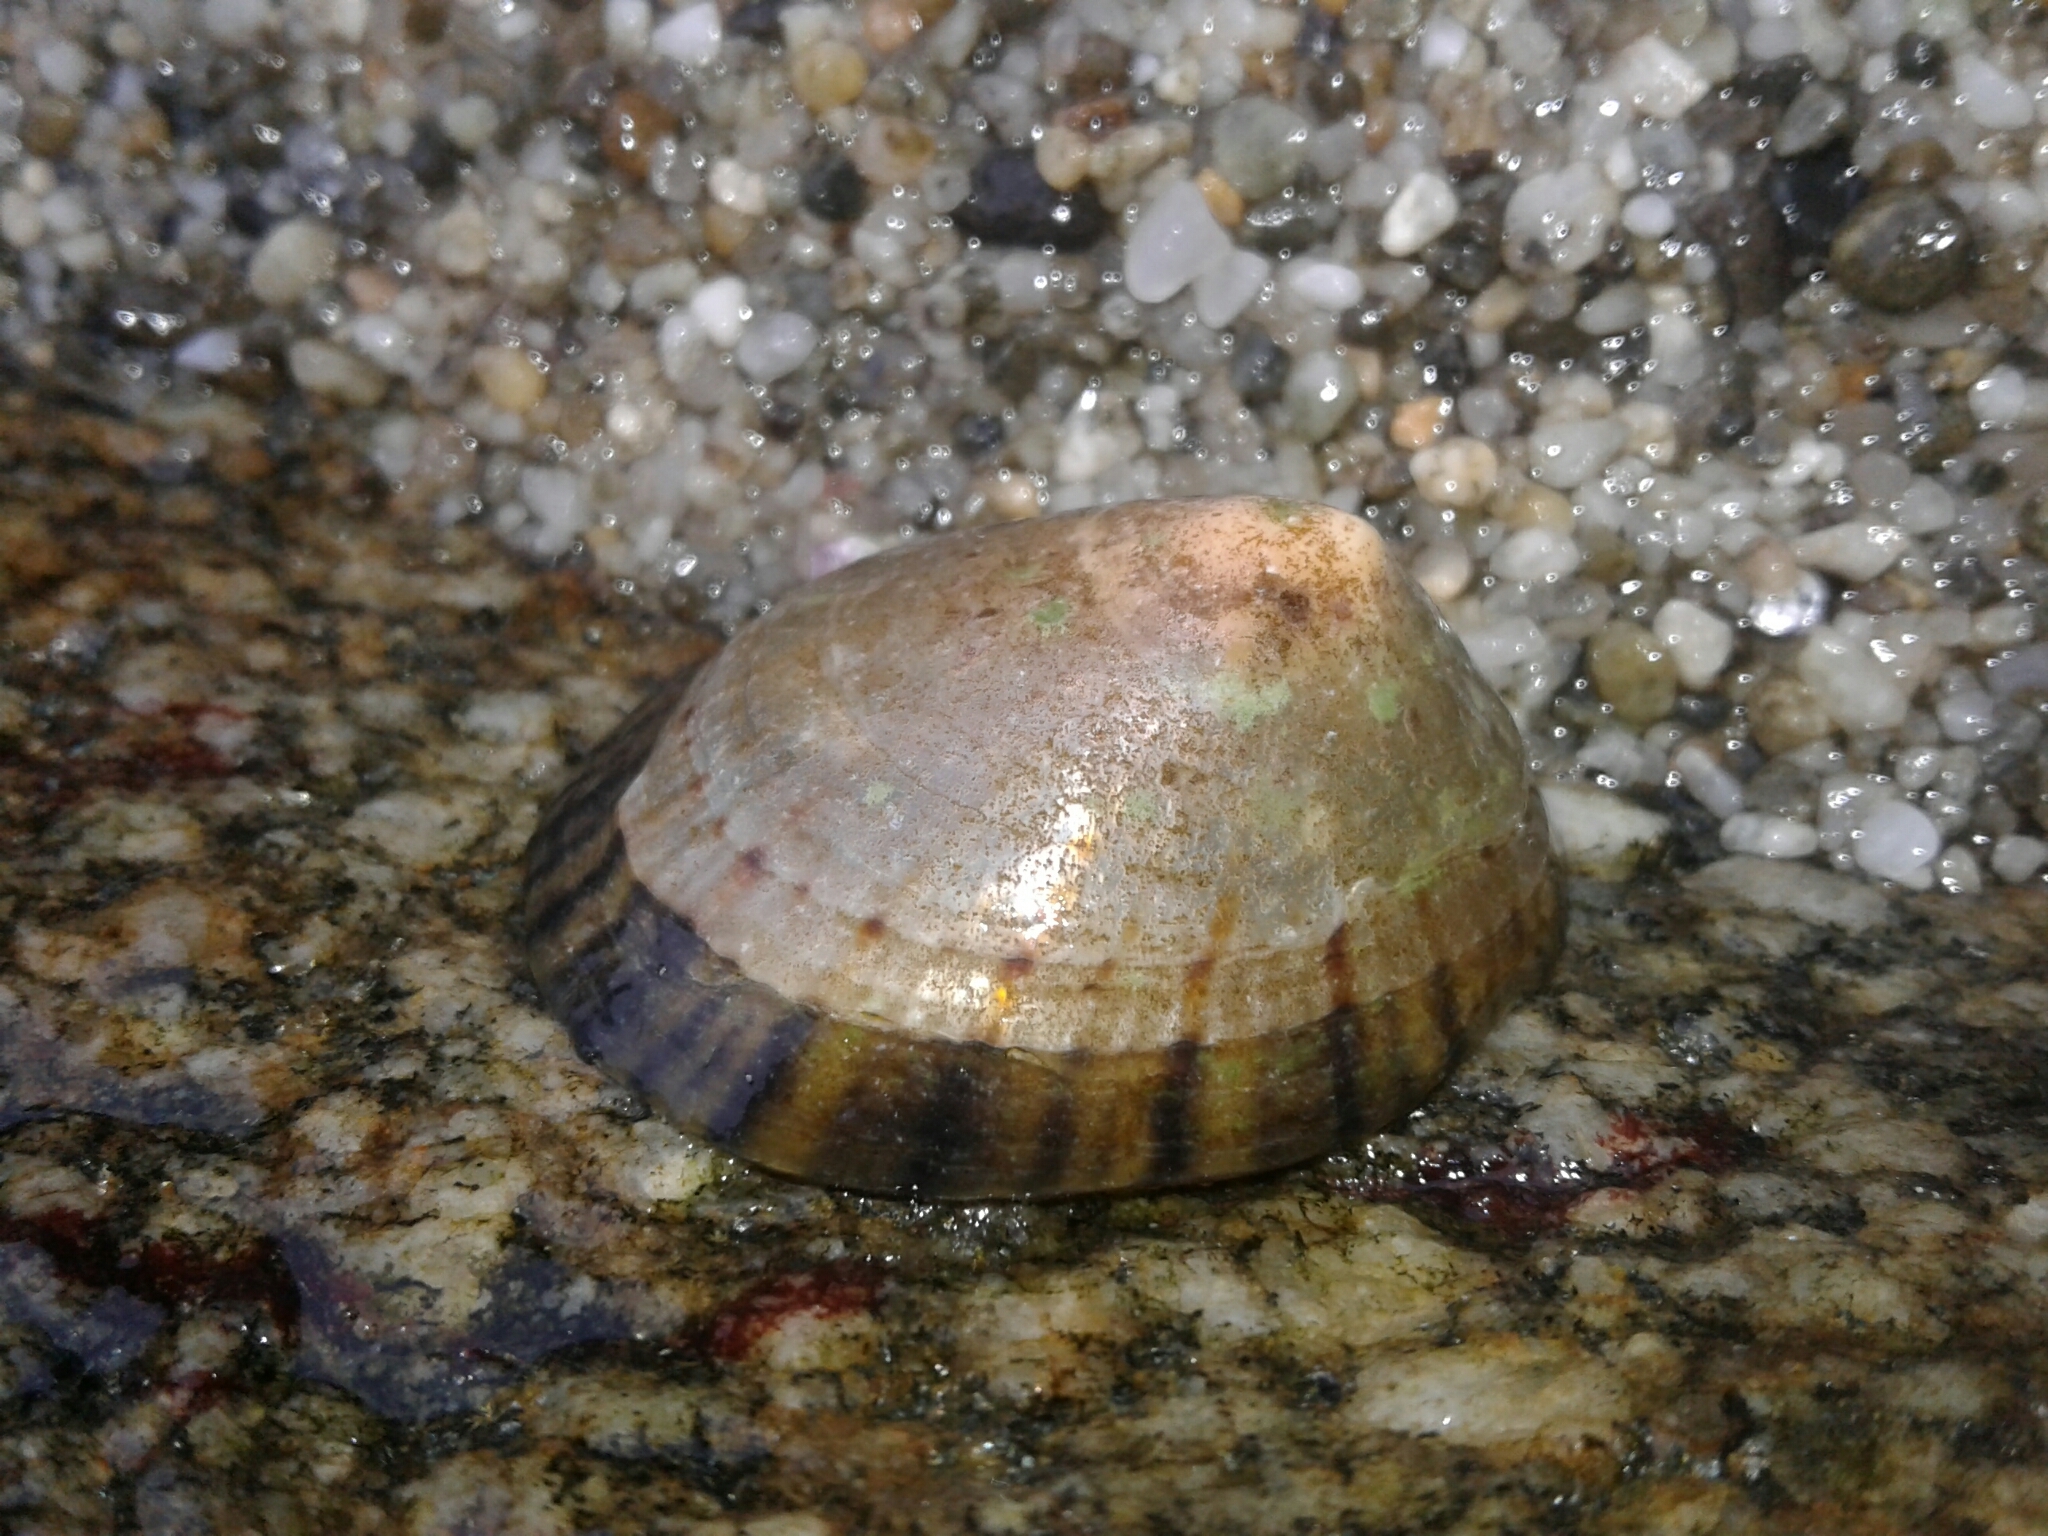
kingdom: Animalia
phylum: Mollusca
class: Gastropoda
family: Nacellidae
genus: Cellana
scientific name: Cellana radians
